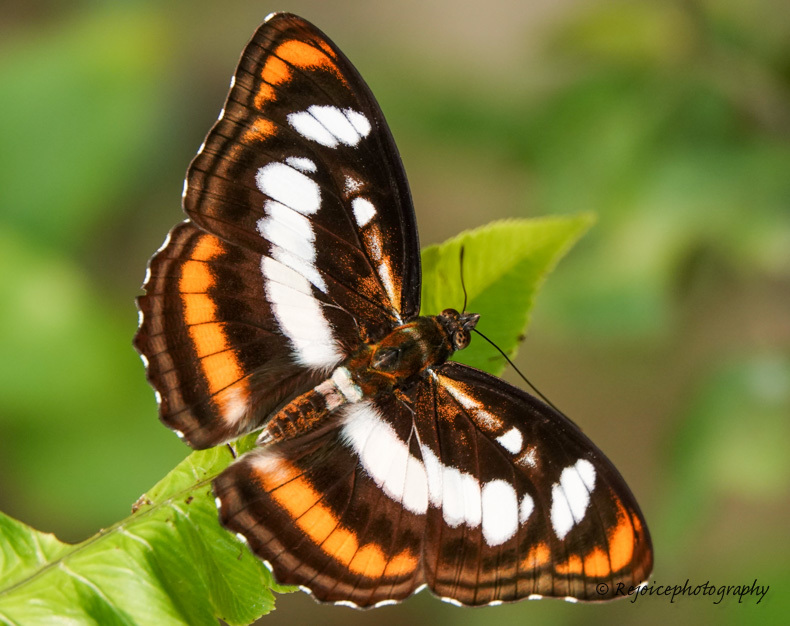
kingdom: Animalia
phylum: Arthropoda
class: Insecta
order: Lepidoptera
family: Nymphalidae
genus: Parathyma
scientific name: Parathyma nefte
